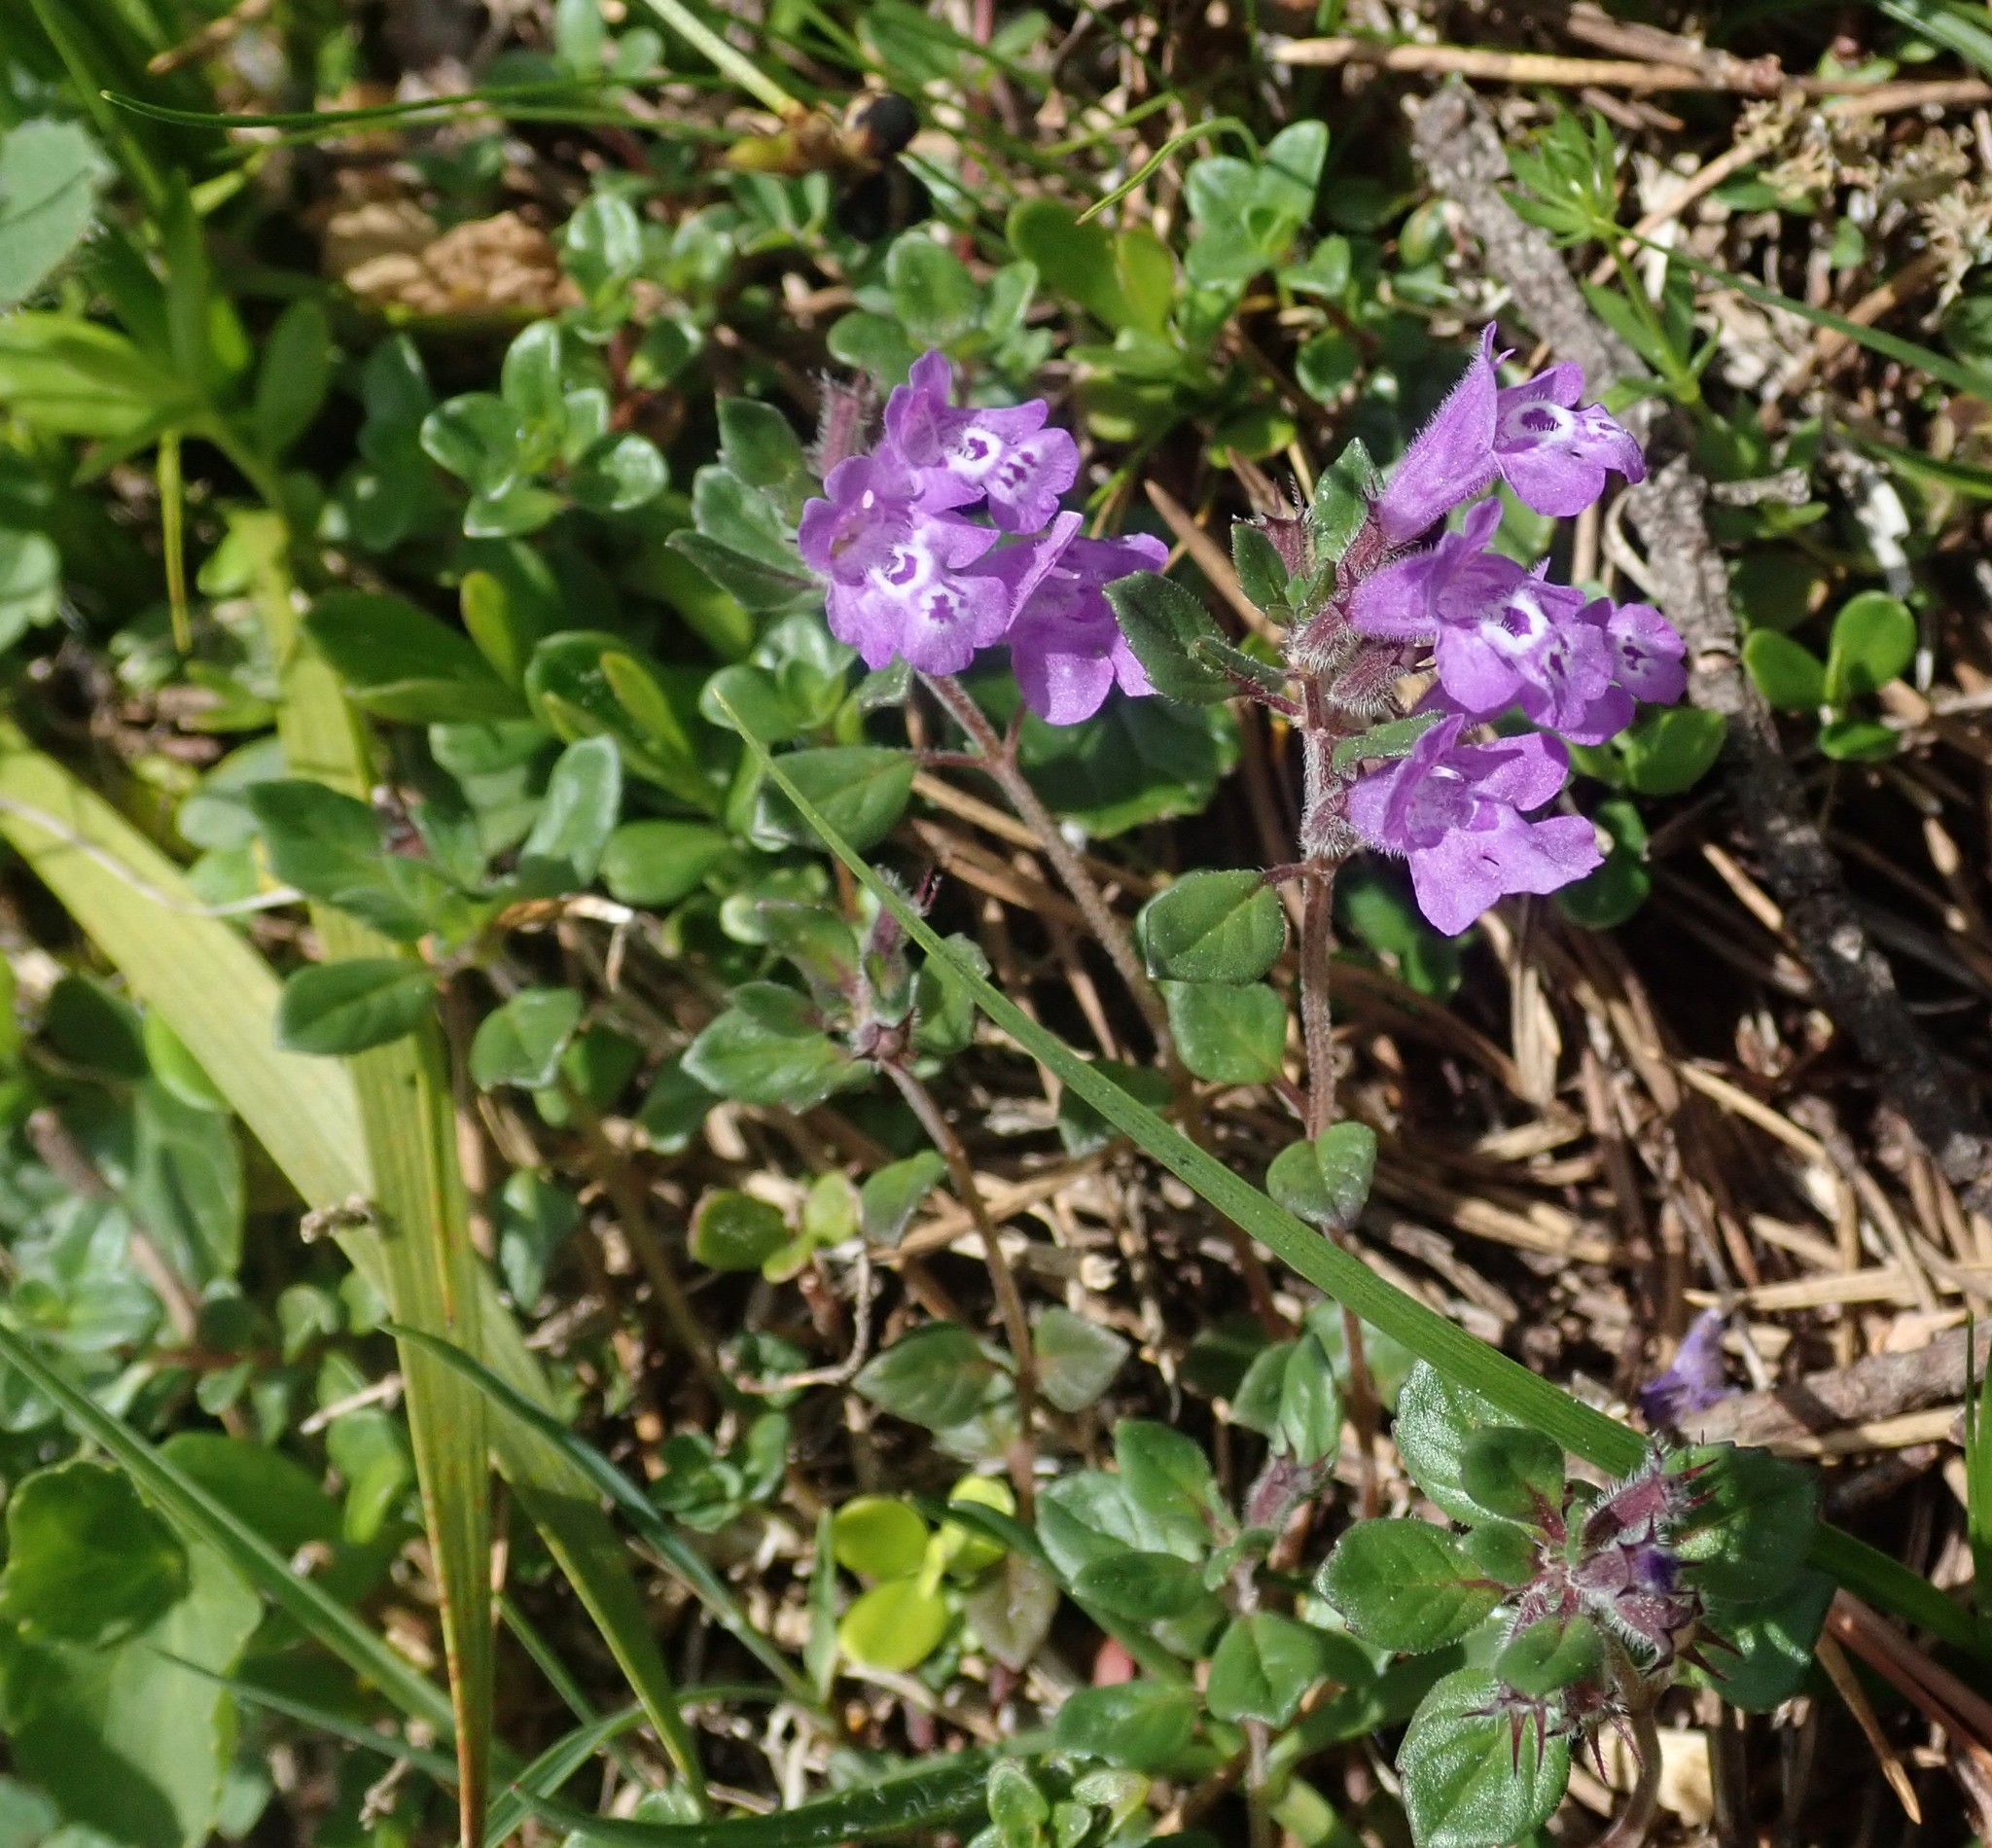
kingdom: Plantae
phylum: Tracheophyta
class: Magnoliopsida
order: Lamiales
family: Lamiaceae
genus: Clinopodium
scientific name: Clinopodium alpinum
